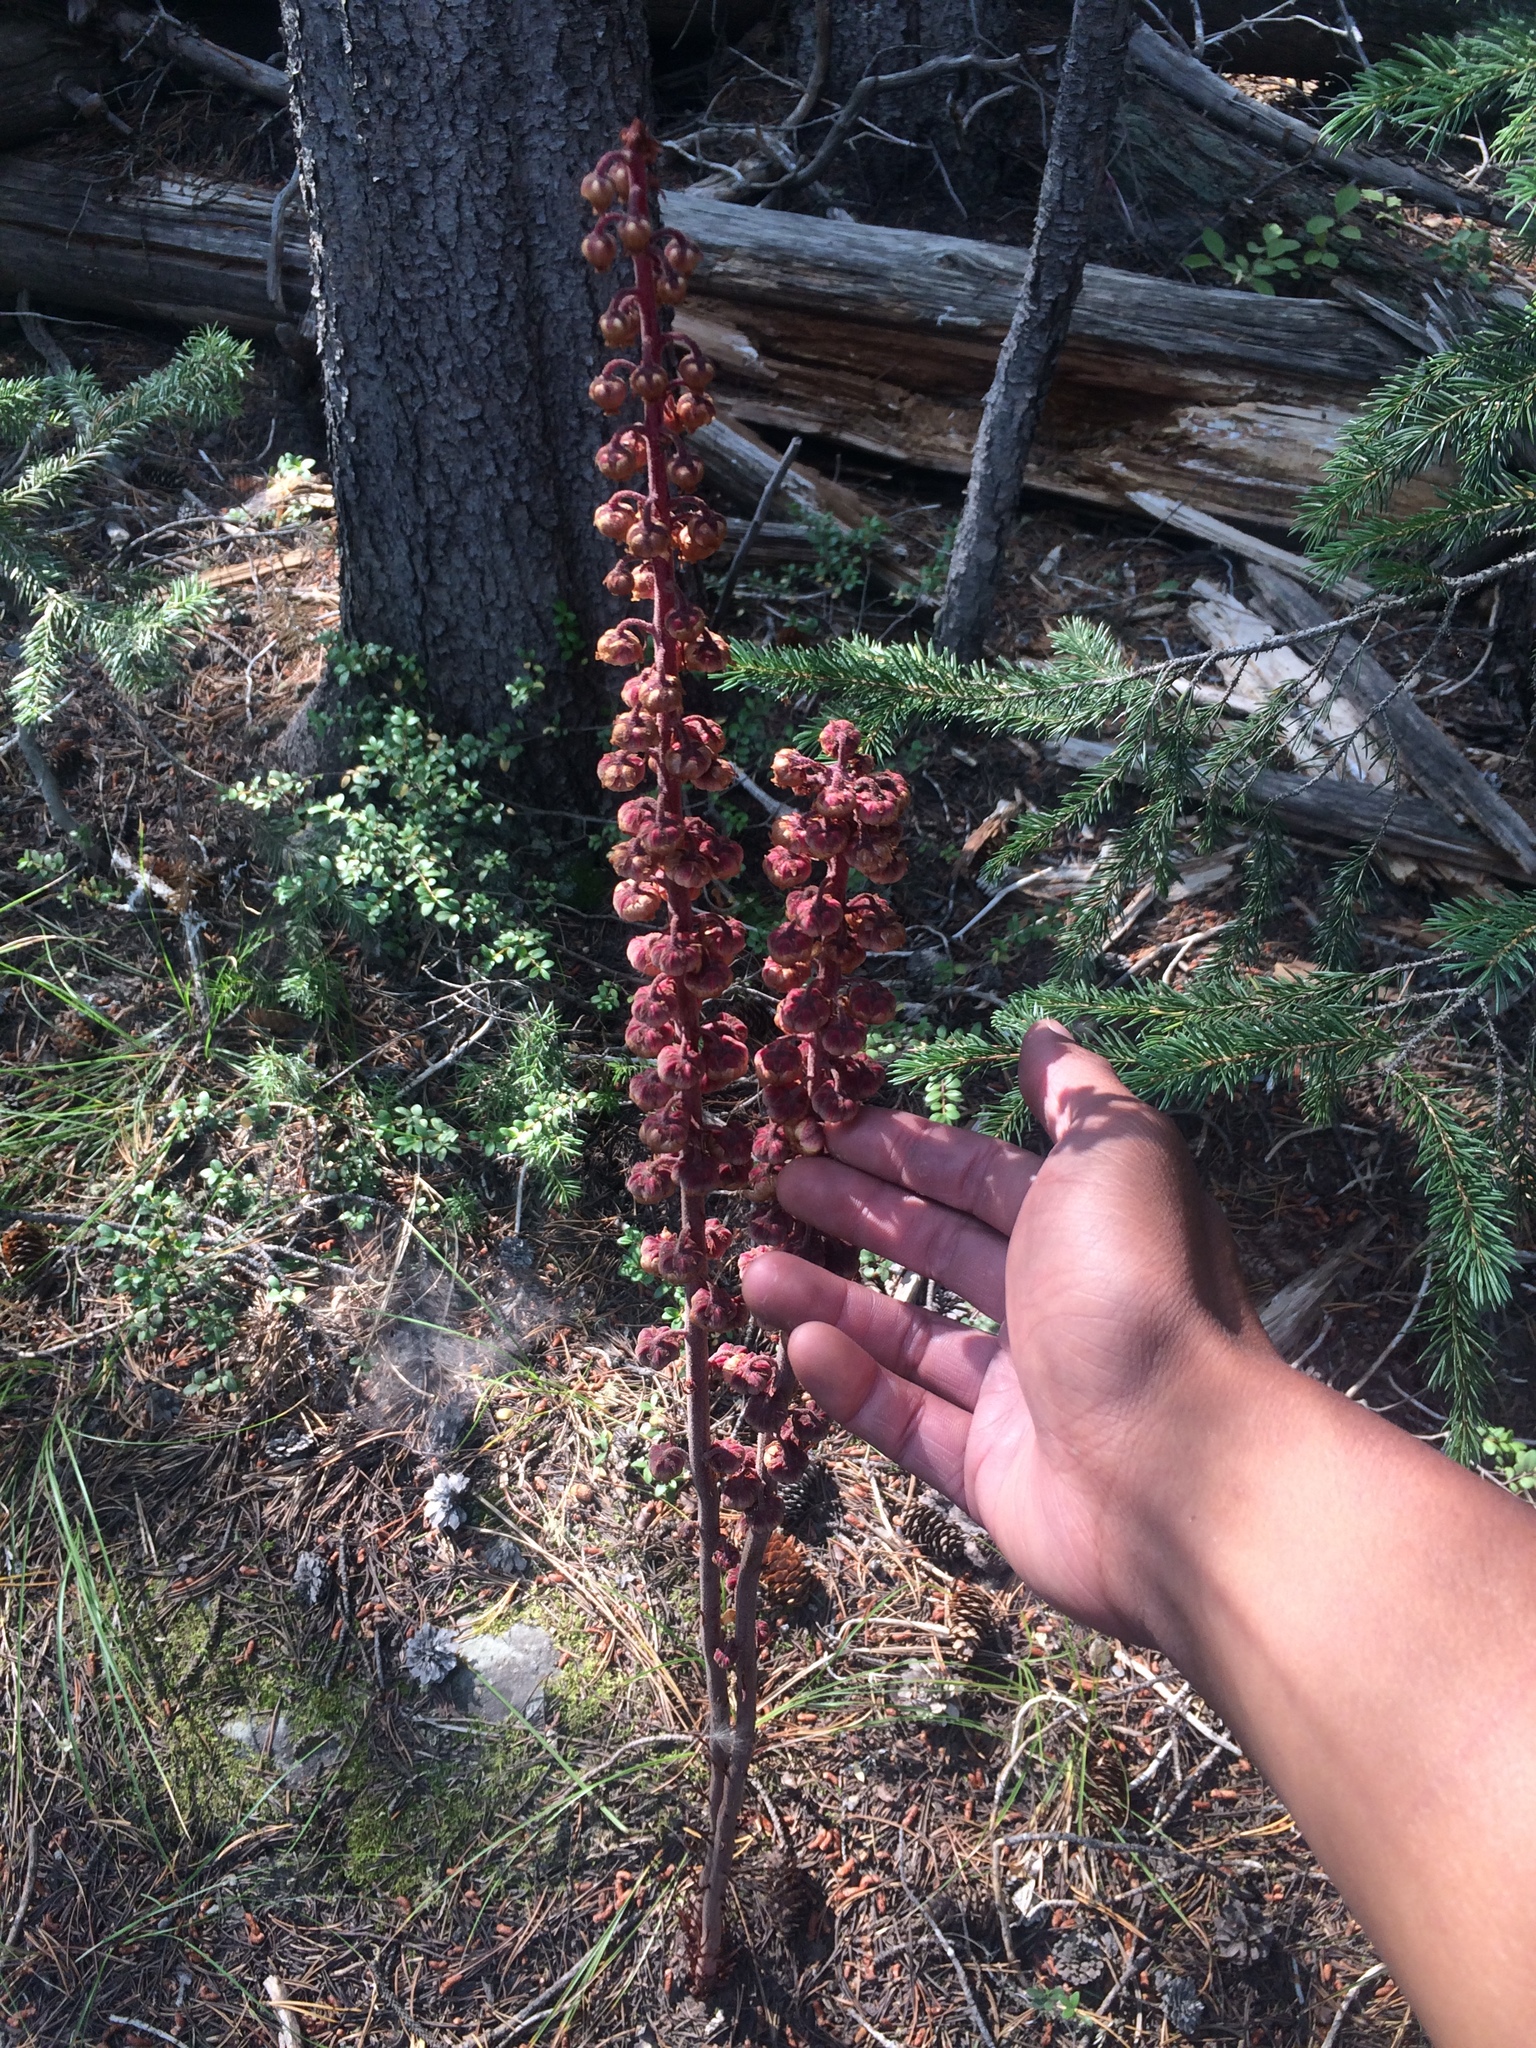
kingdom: Plantae
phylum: Tracheophyta
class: Magnoliopsida
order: Ericales
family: Ericaceae
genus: Pterospora
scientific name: Pterospora andromedea
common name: Giant bird's-nest
